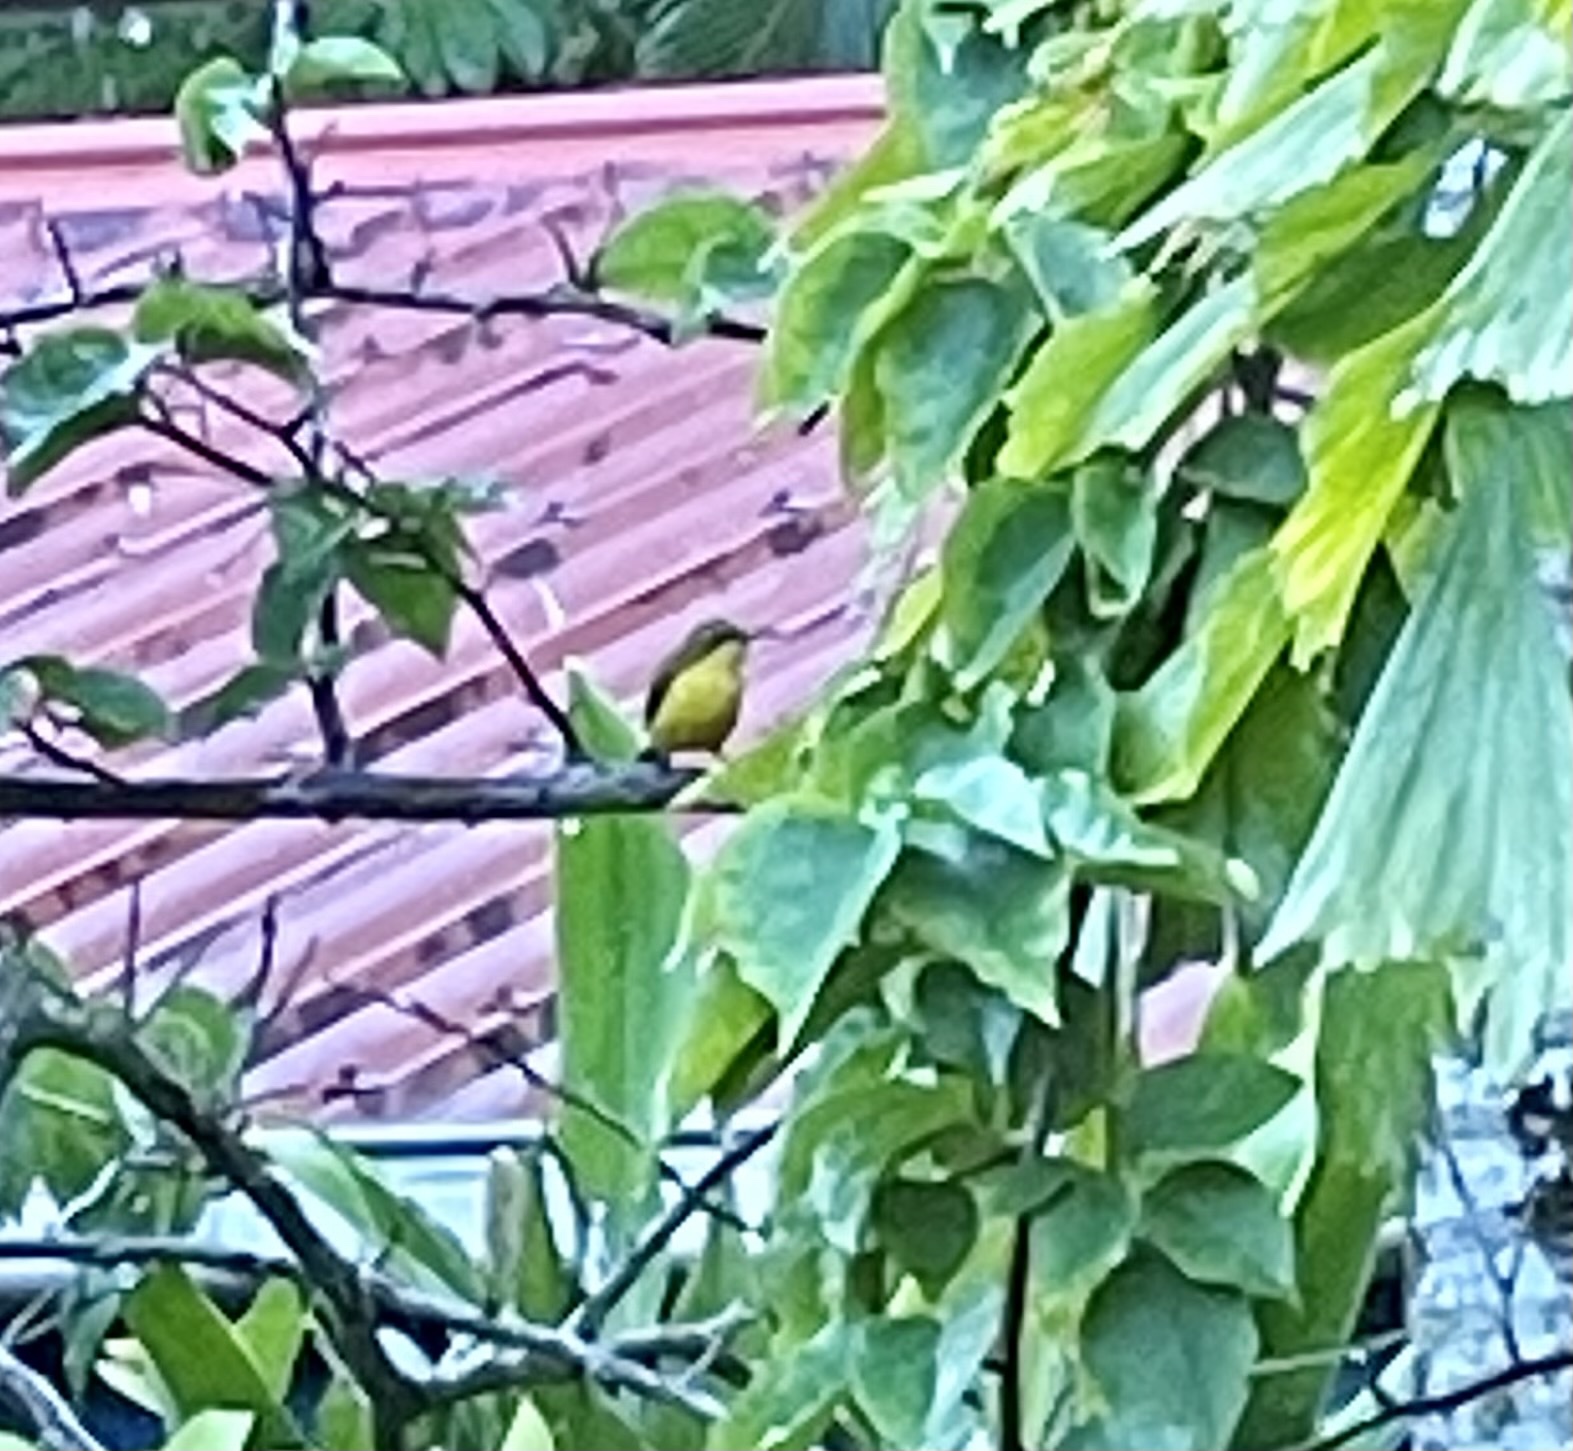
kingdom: Animalia
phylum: Chordata
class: Aves
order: Passeriformes
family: Nectariniidae
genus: Cinnyris
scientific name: Cinnyris
